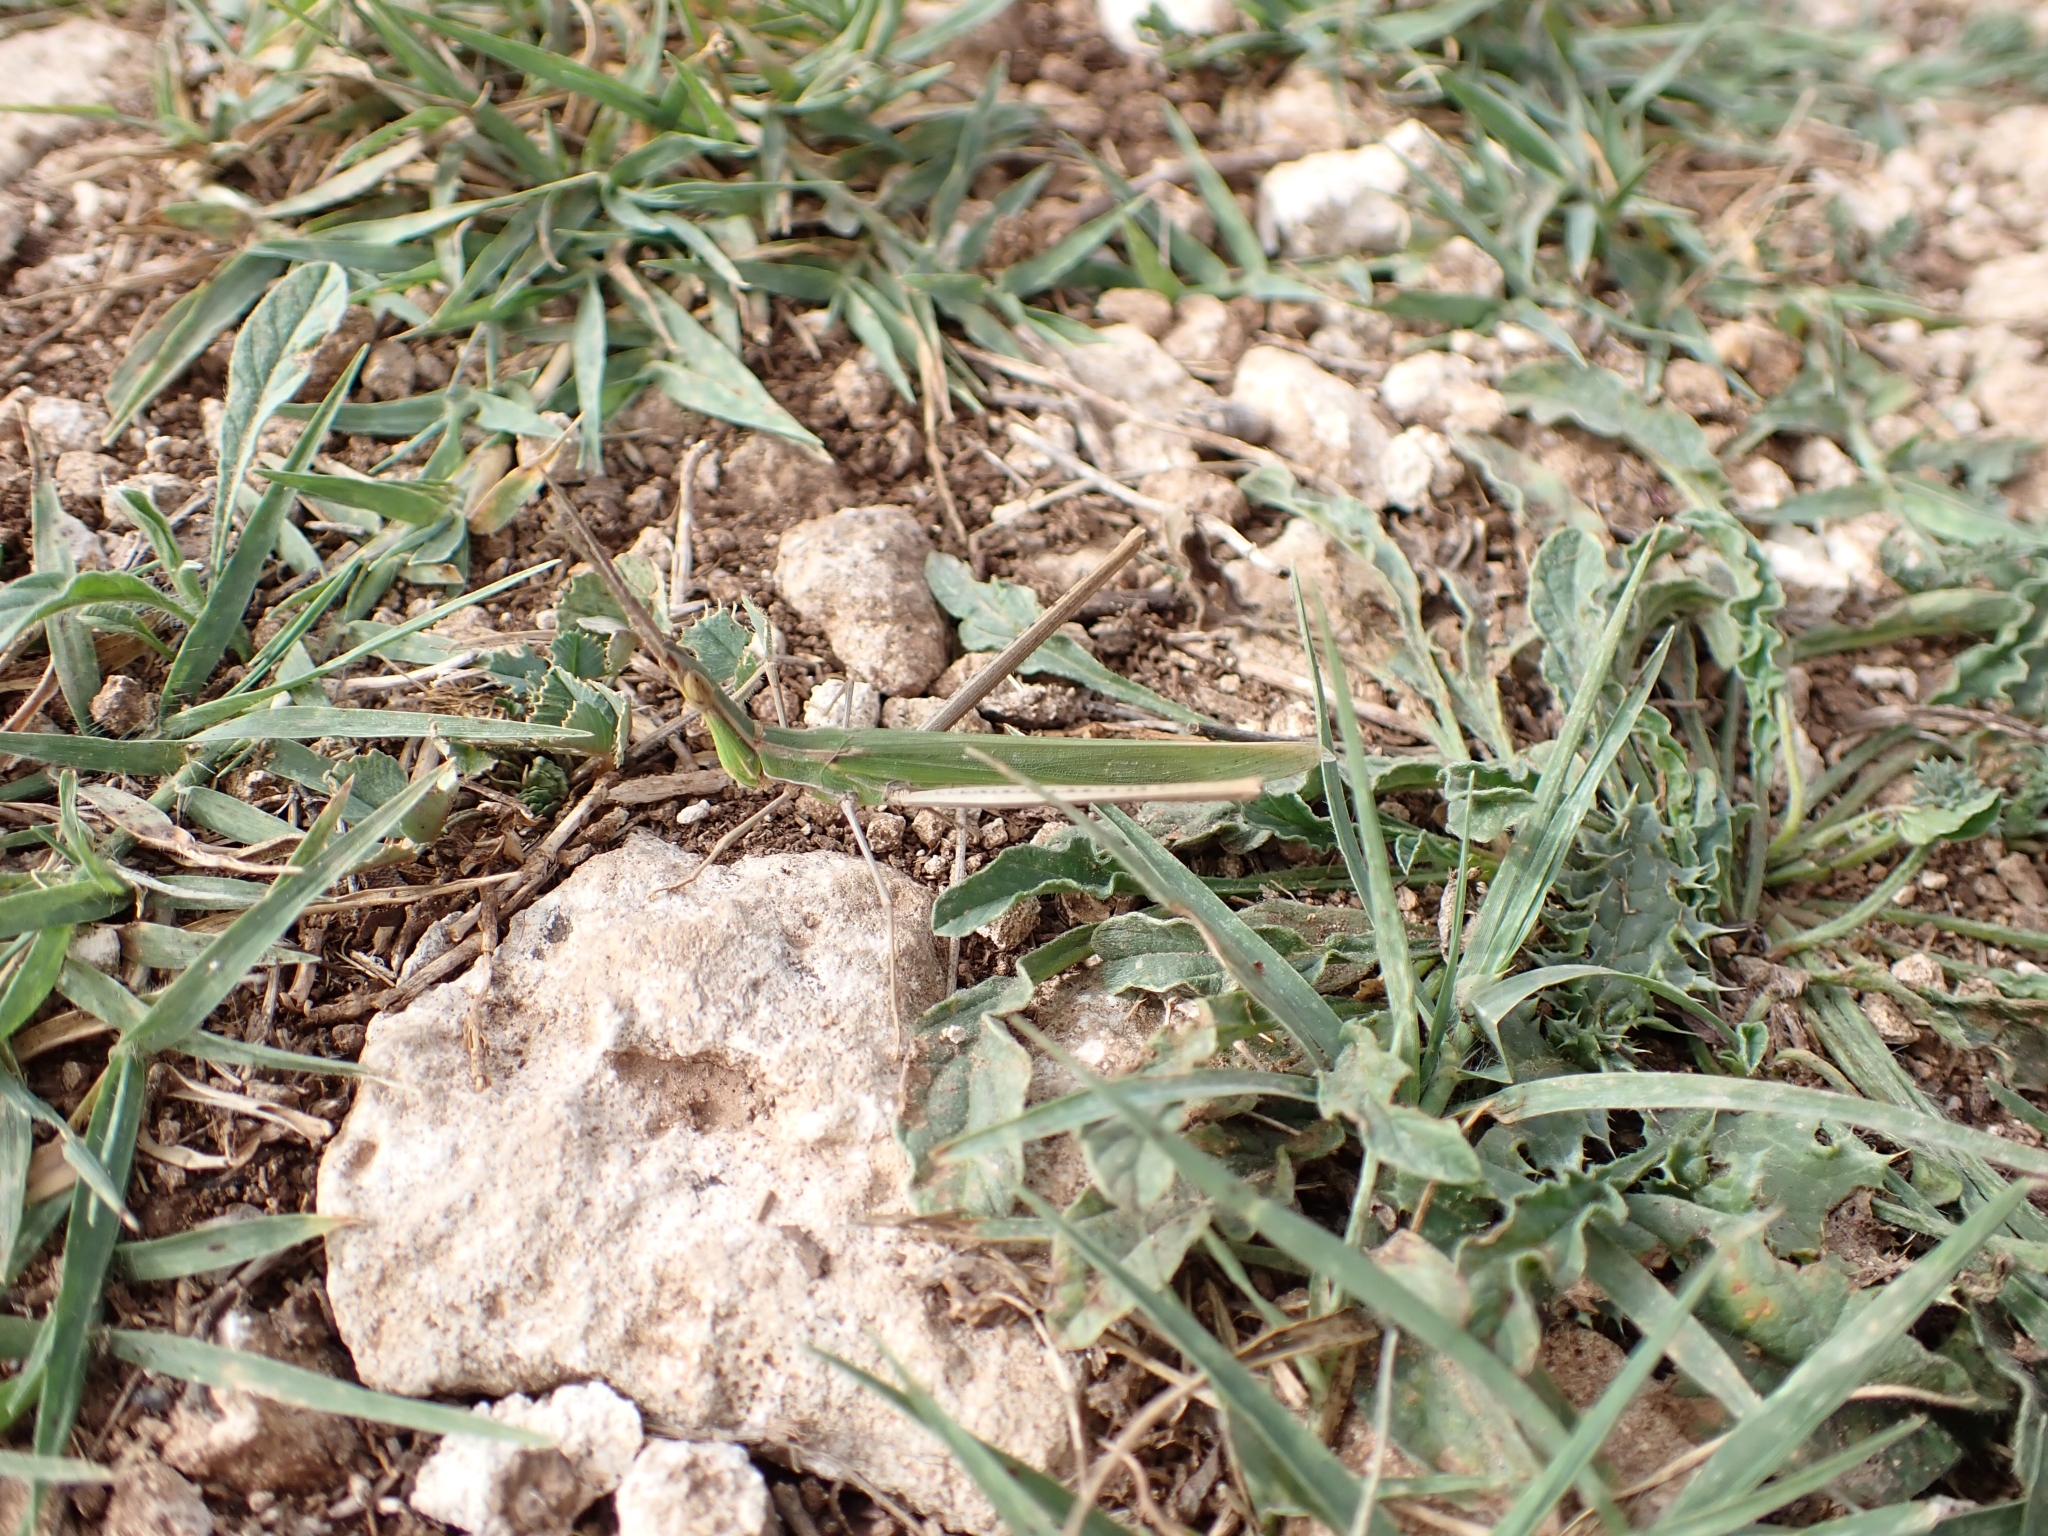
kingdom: Animalia
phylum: Arthropoda
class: Insecta
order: Orthoptera
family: Acrididae
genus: Acrida
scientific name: Acrida ungarica
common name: Common cone-headed grasshopper
